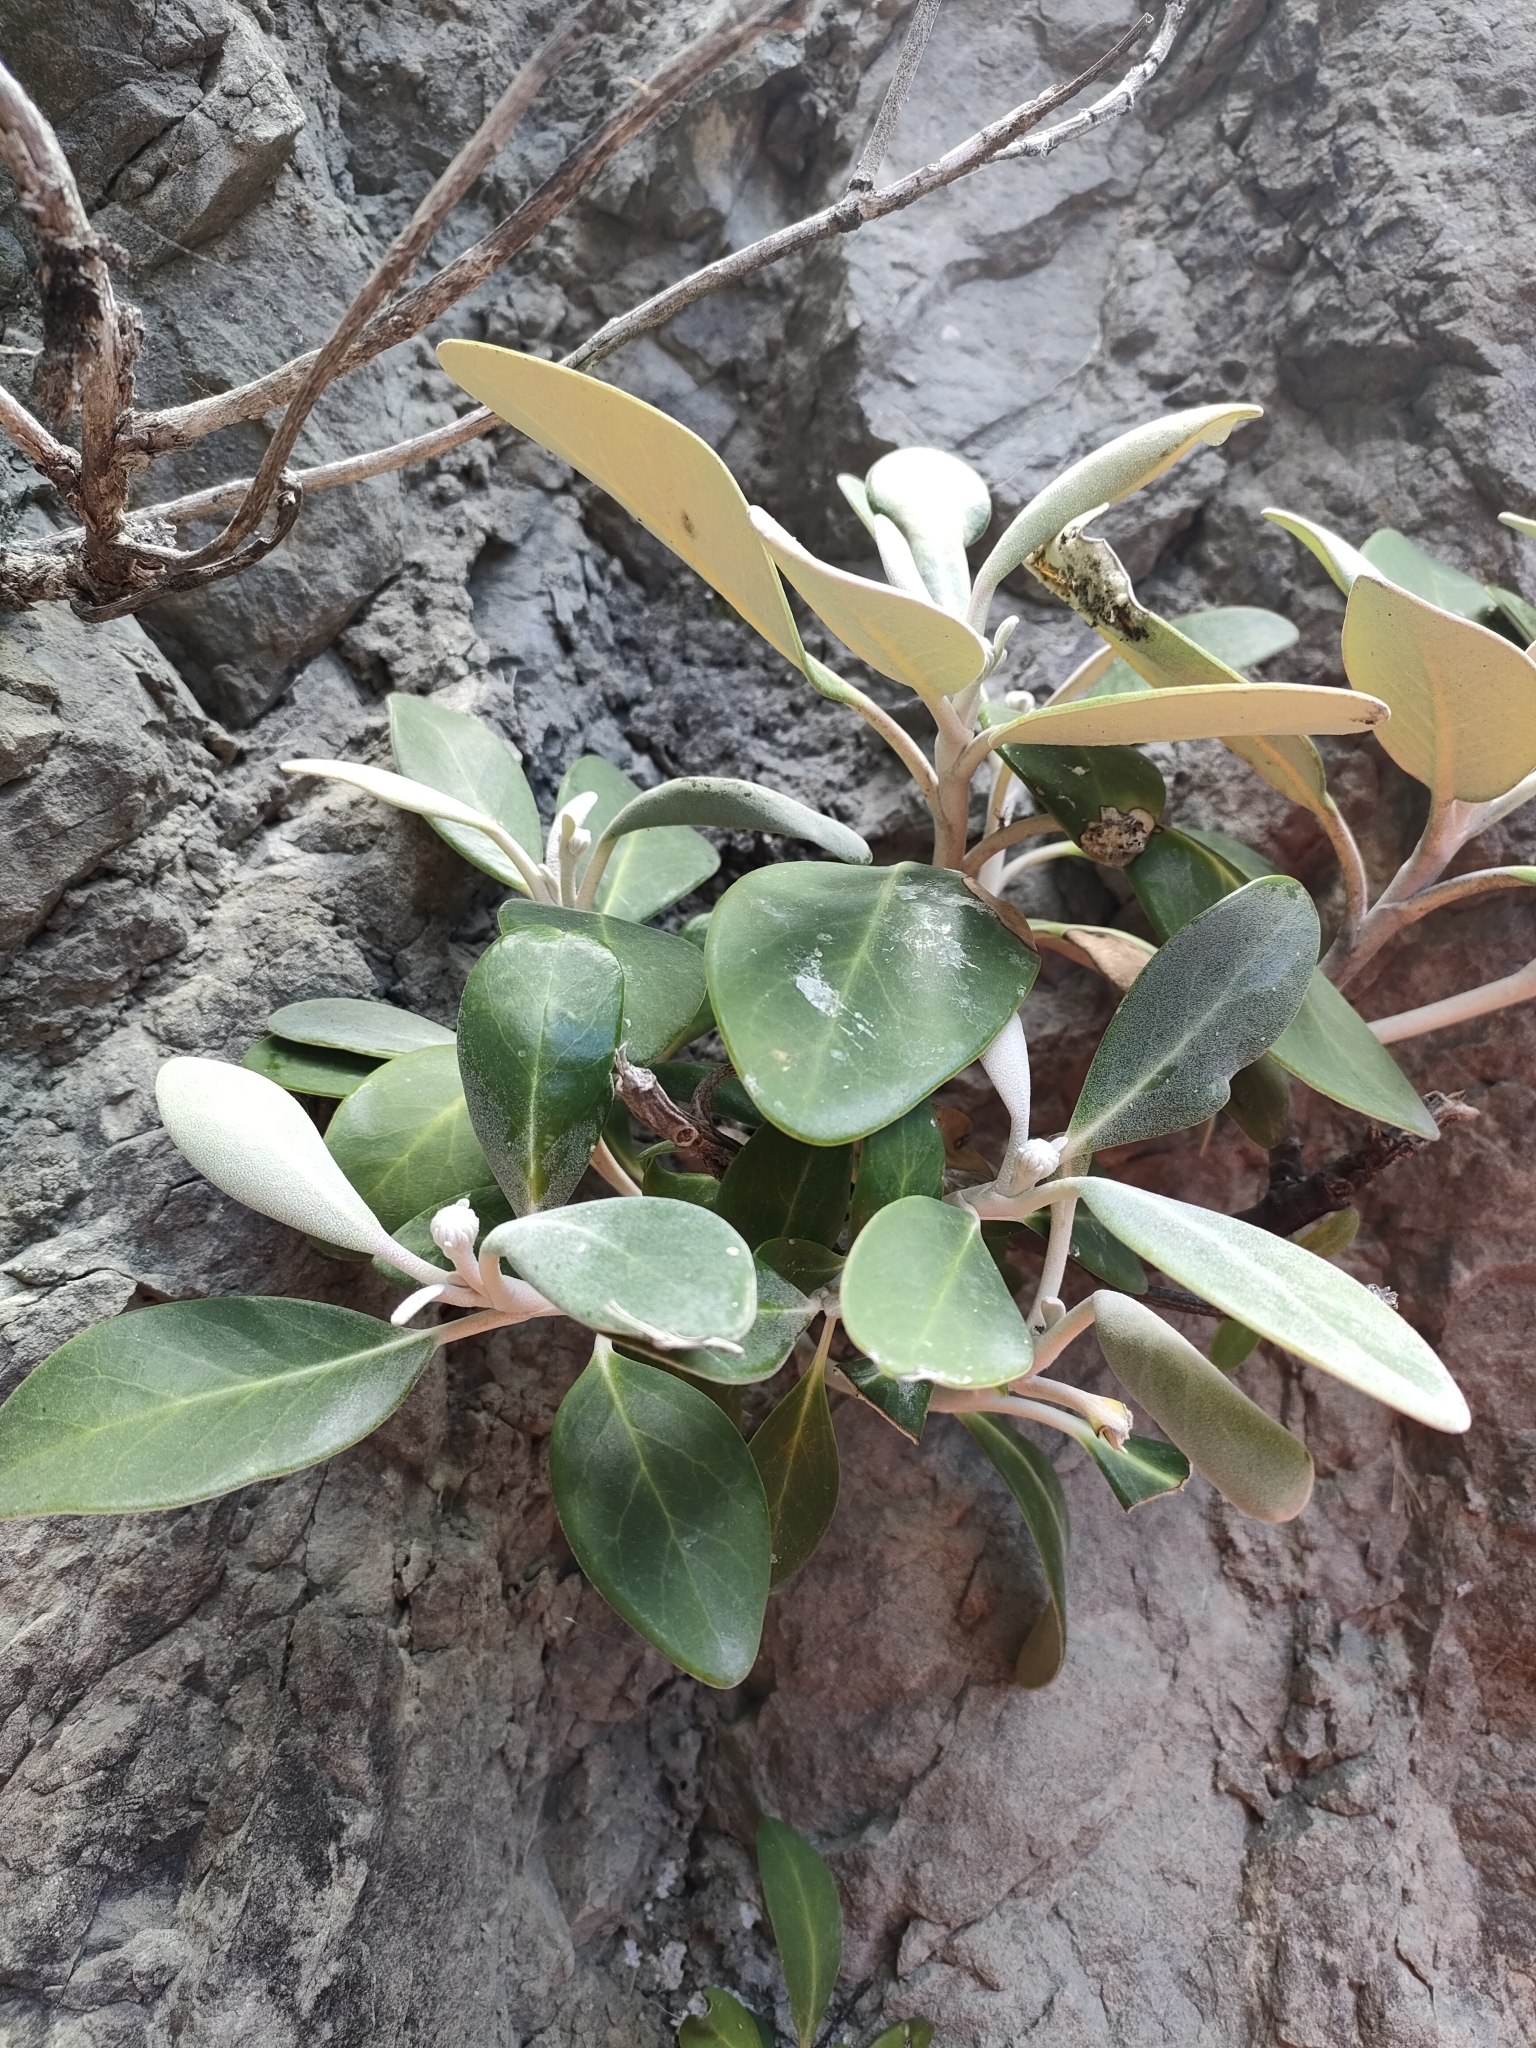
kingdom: Plantae
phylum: Tracheophyta
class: Magnoliopsida
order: Asterales
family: Asteraceae
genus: Pachystegia
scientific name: Pachystegia minor
